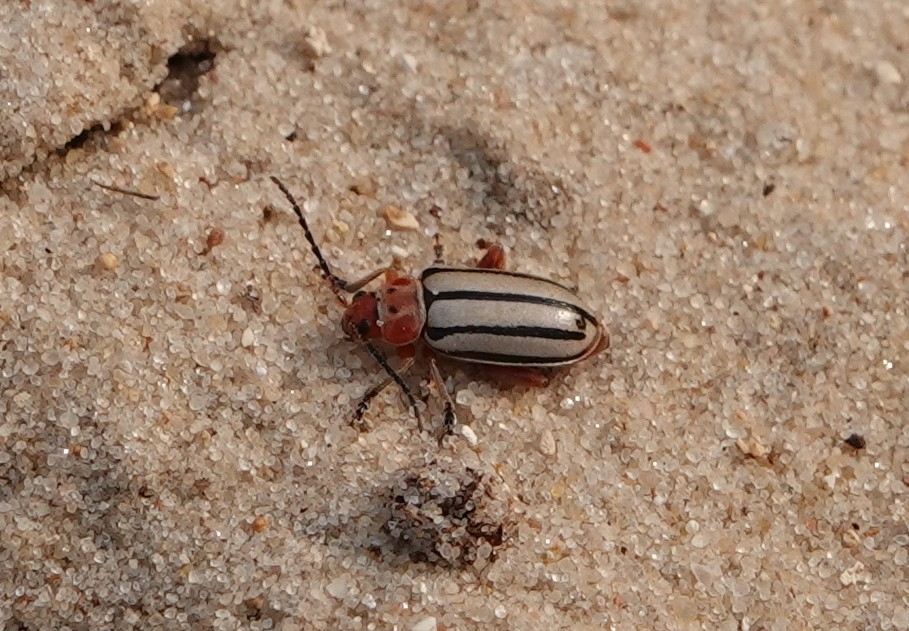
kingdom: Animalia
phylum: Arthropoda
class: Insecta
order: Coleoptera
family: Chrysomelidae
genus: Disonycha
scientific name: Disonycha alternata
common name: Striped willow leaf beetle
